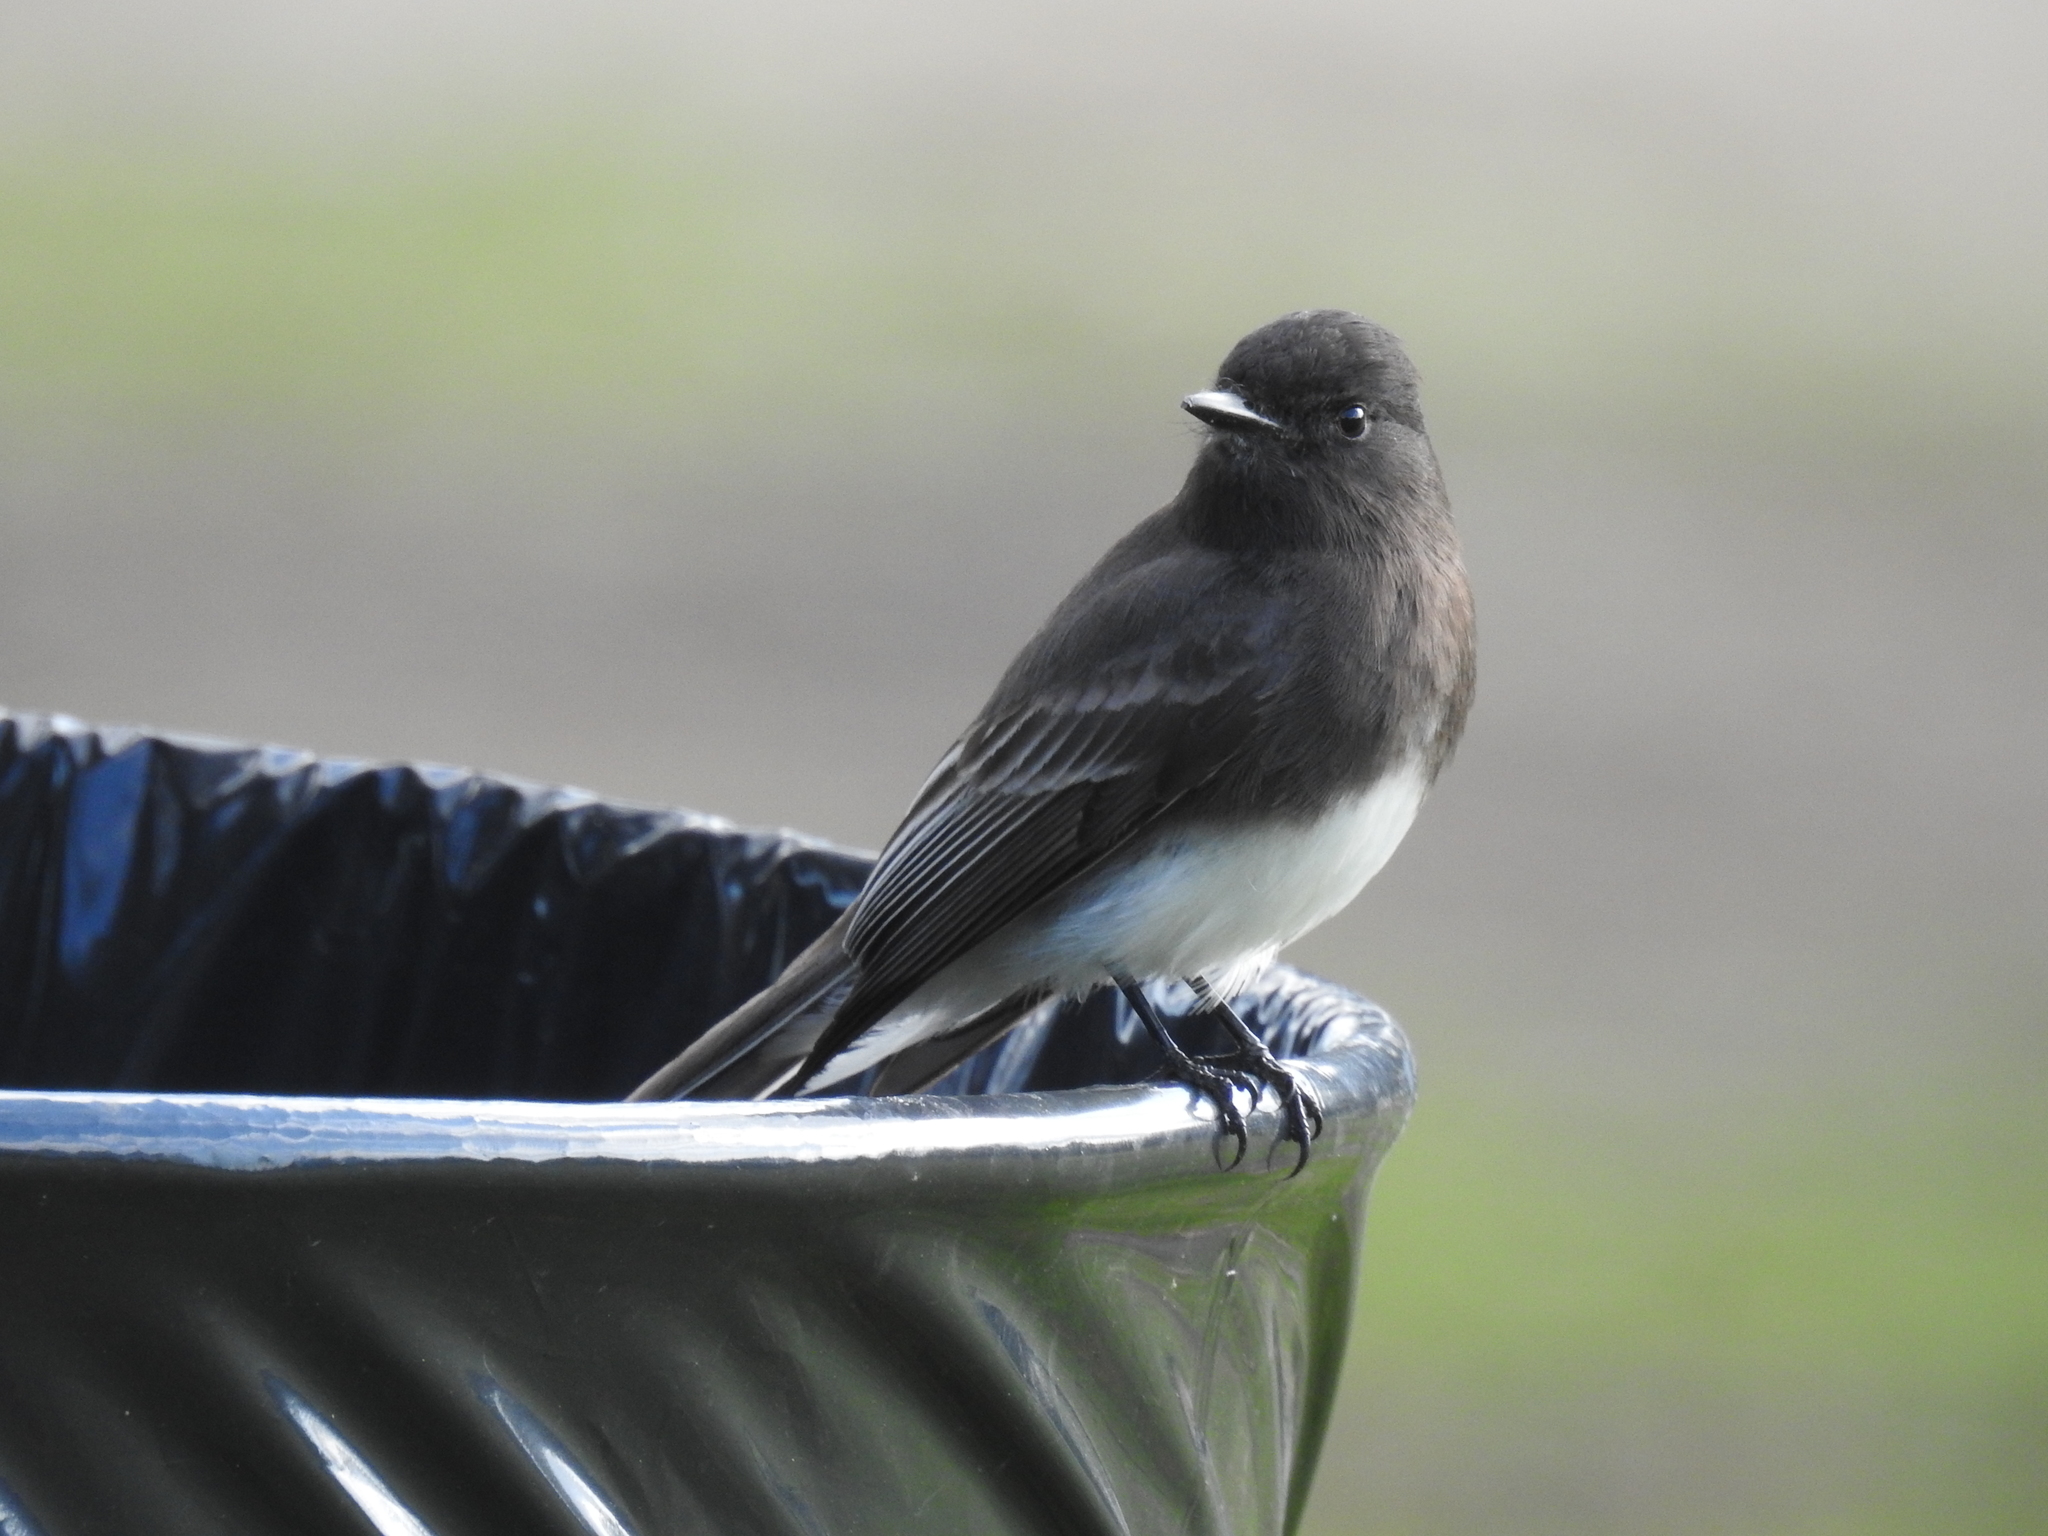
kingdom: Animalia
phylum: Chordata
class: Aves
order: Passeriformes
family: Tyrannidae
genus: Sayornis
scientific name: Sayornis nigricans
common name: Black phoebe
